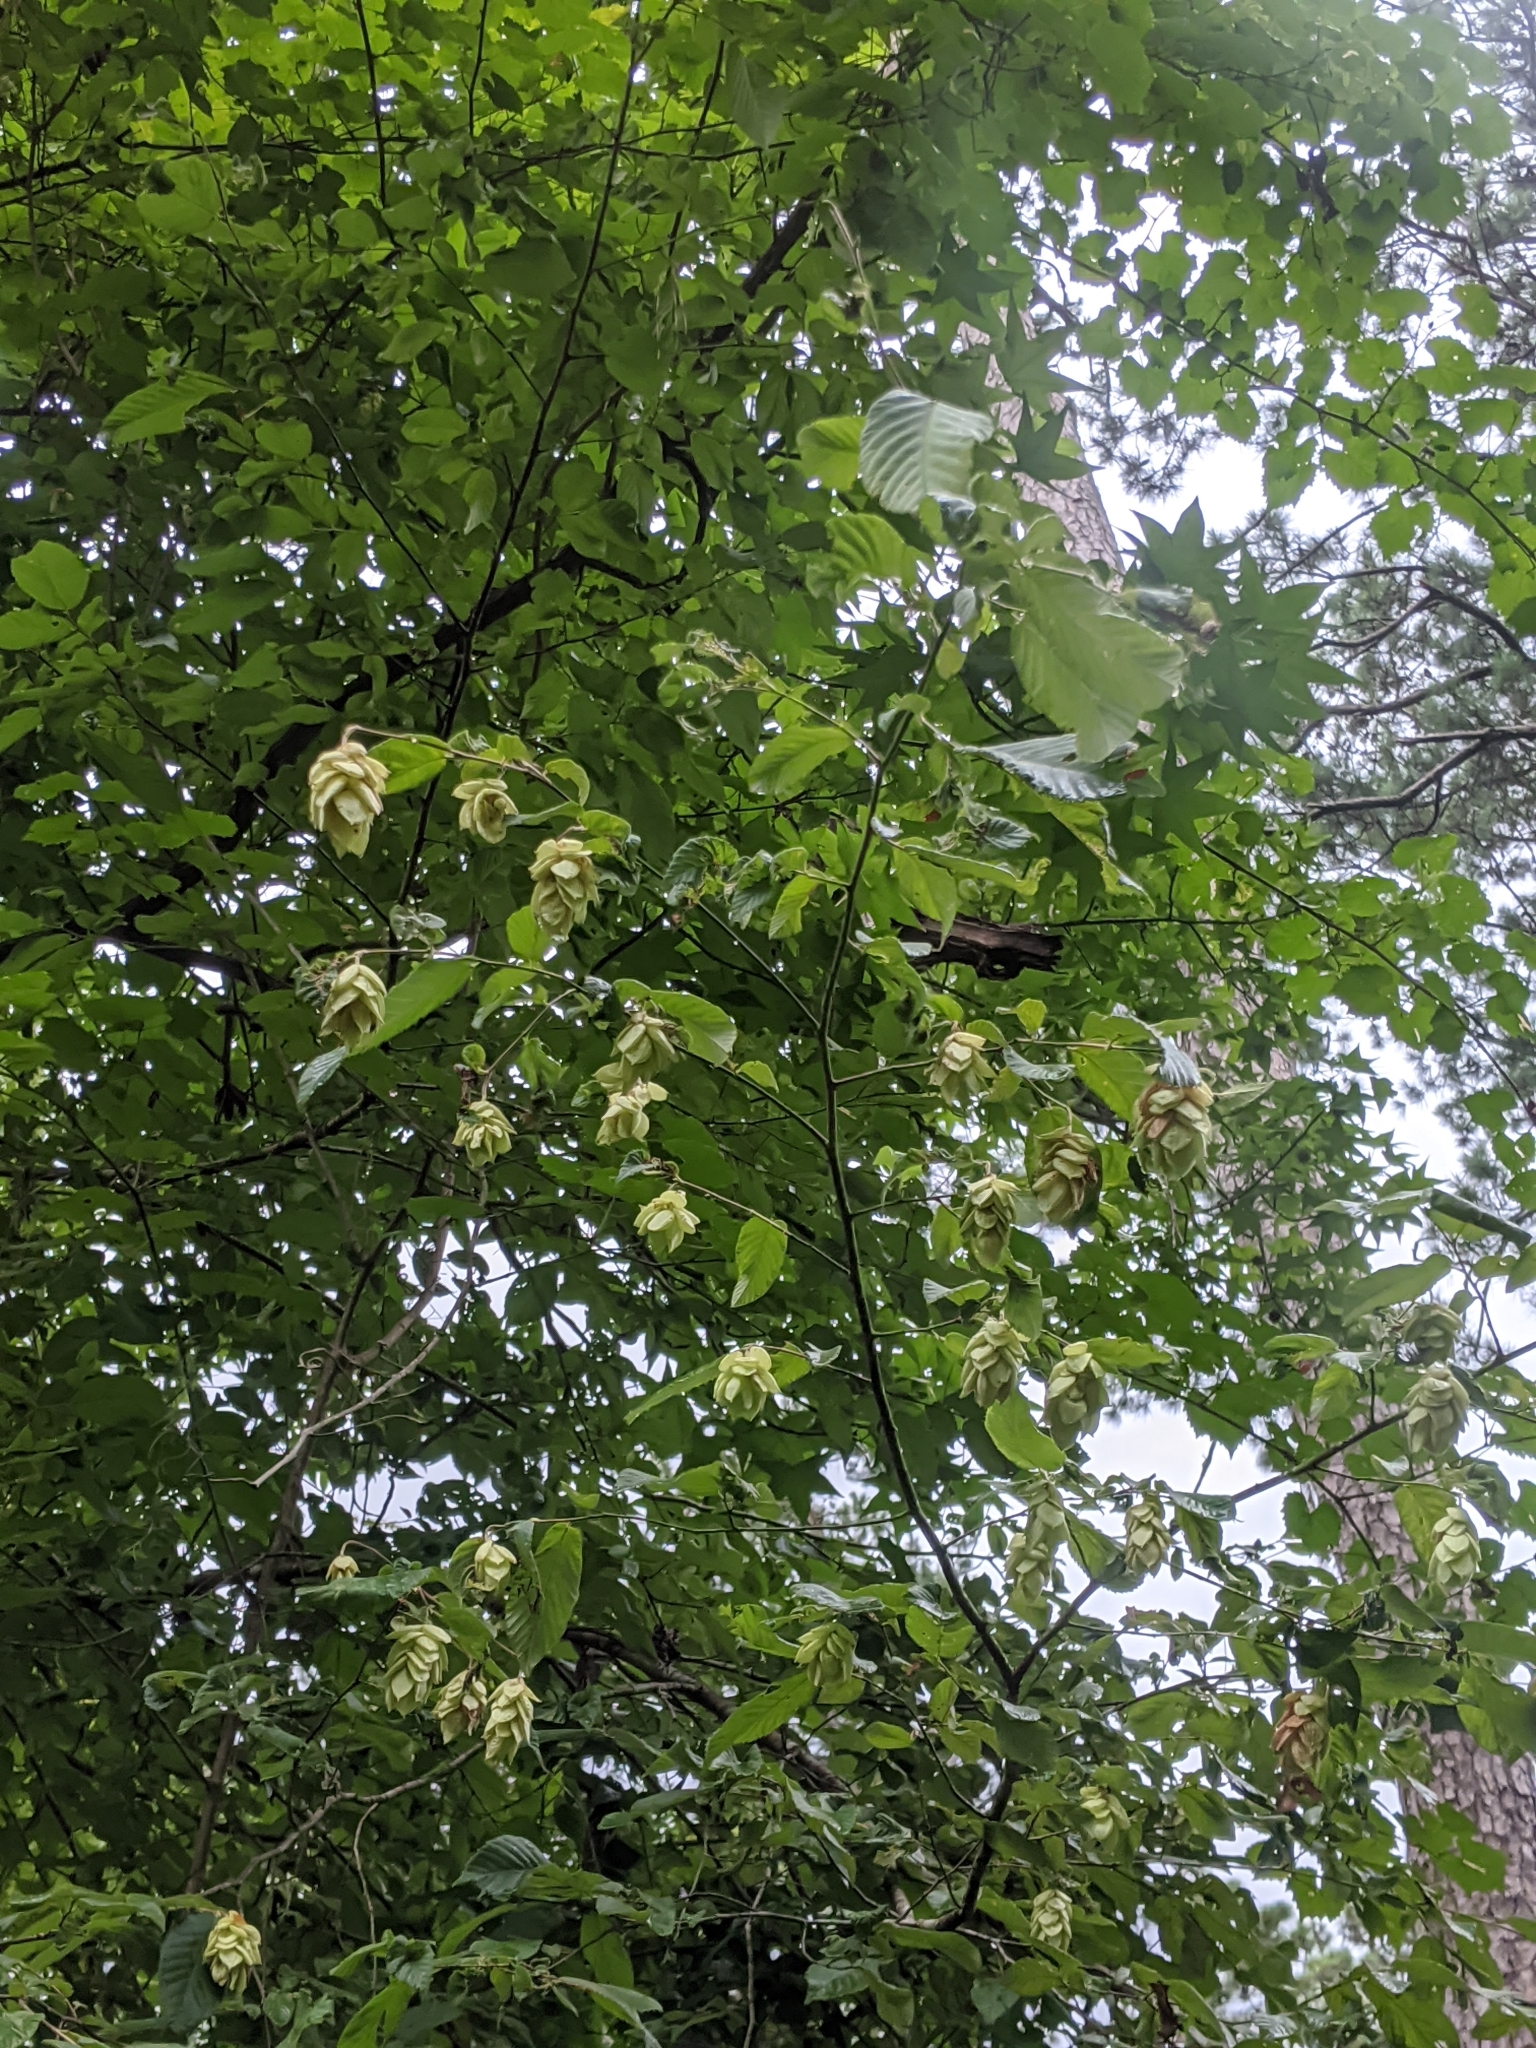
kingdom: Plantae
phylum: Tracheophyta
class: Magnoliopsida
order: Fagales
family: Betulaceae
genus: Ostrya
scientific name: Ostrya virginiana
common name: Ironwood
